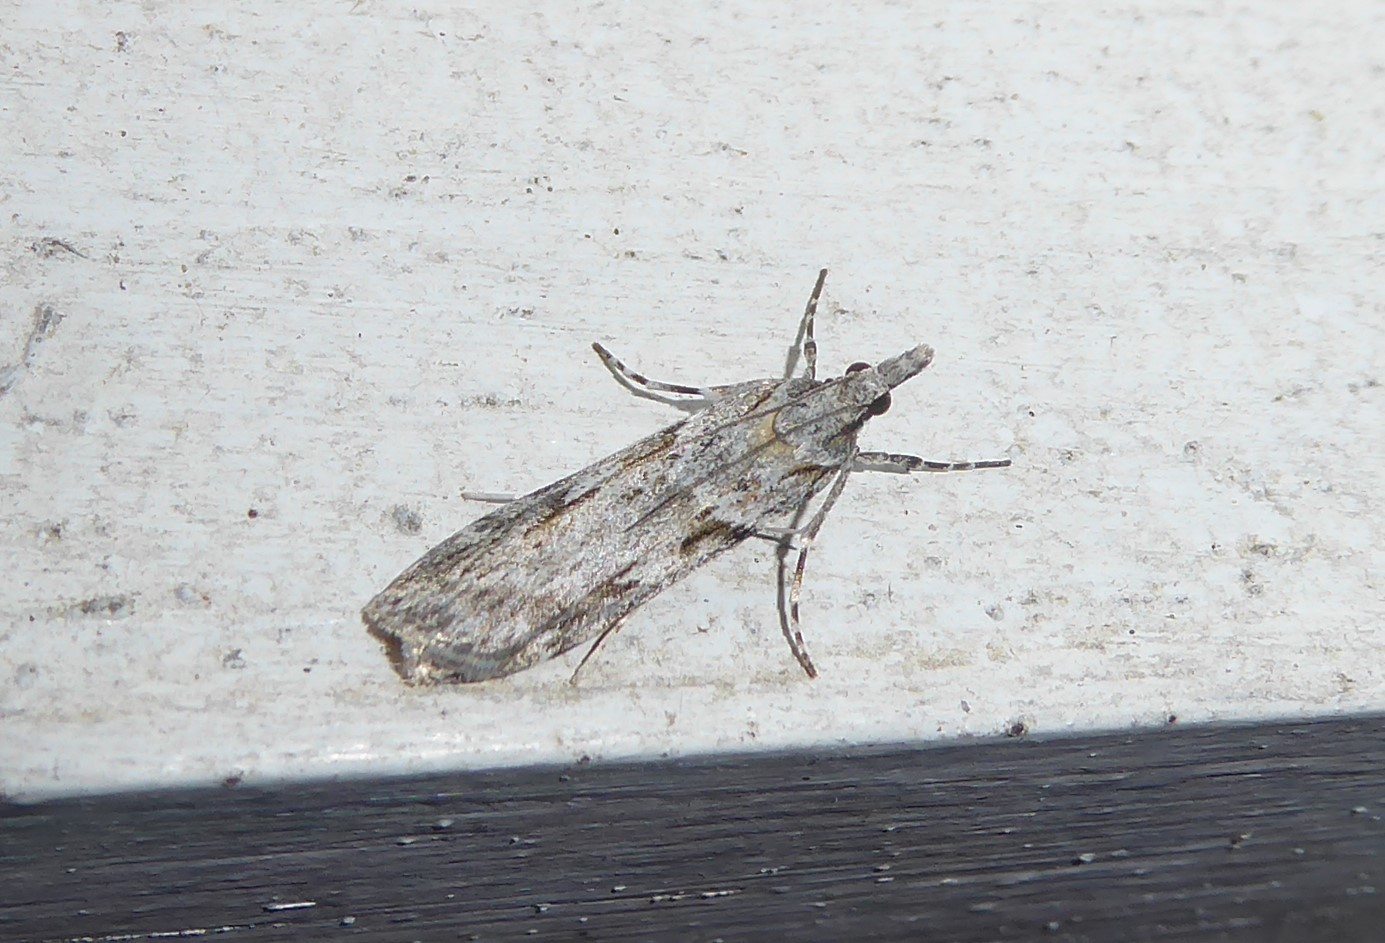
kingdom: Animalia
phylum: Arthropoda
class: Insecta
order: Lepidoptera
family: Crambidae
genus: Scoparia
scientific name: Scoparia halopis
